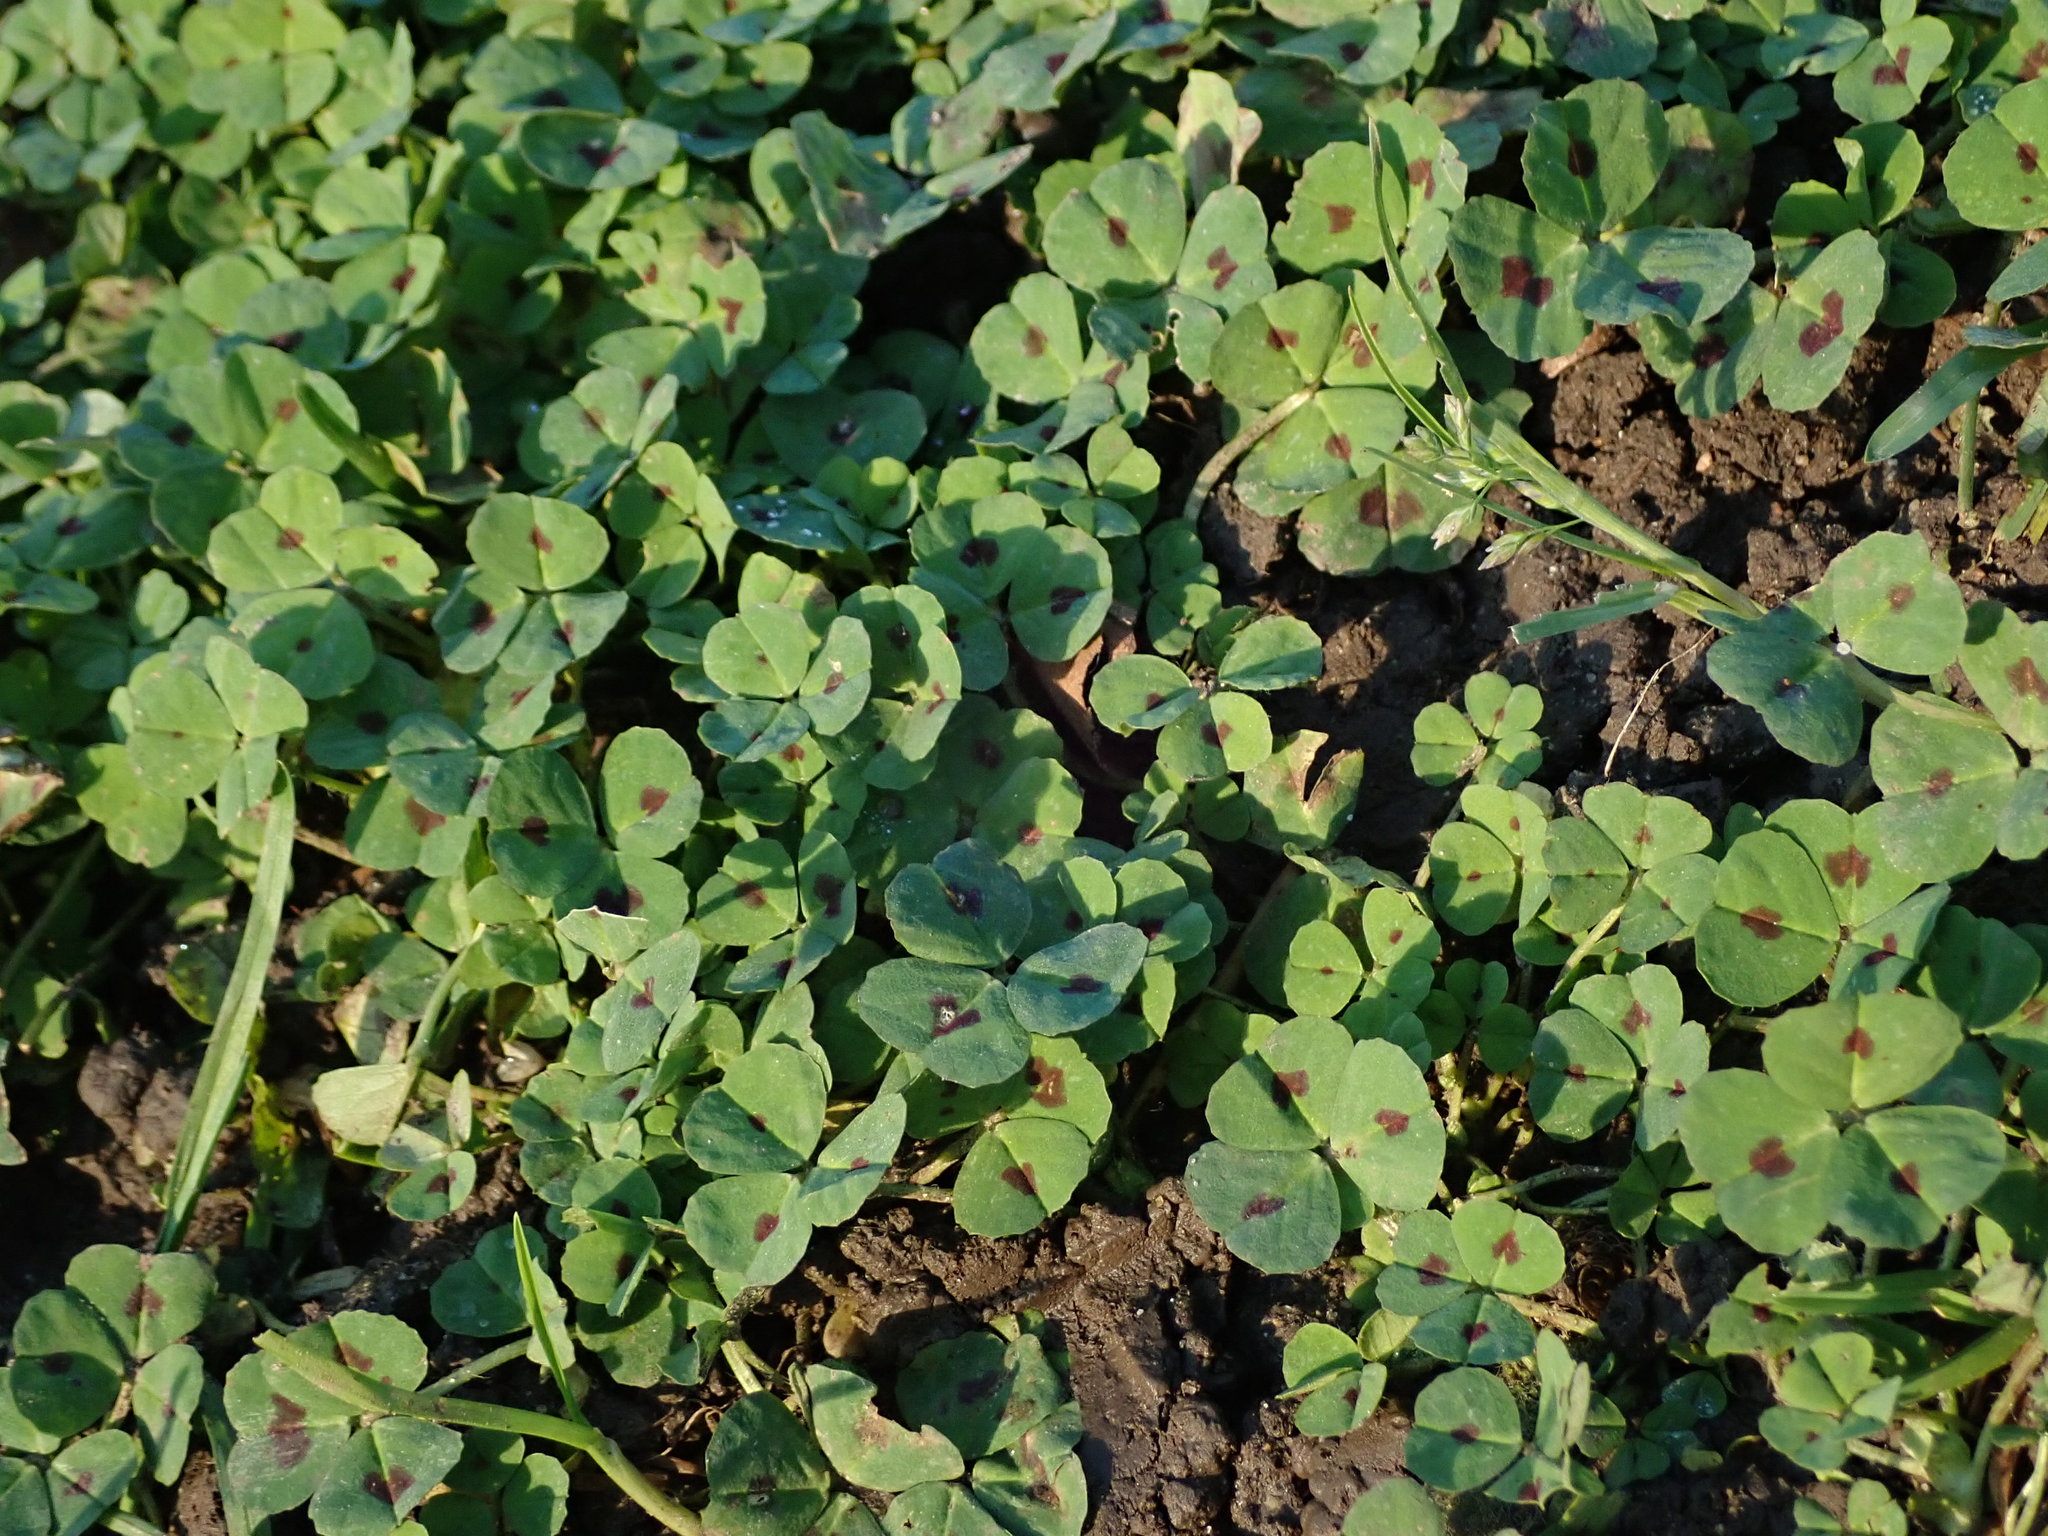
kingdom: Plantae
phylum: Tracheophyta
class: Magnoliopsida
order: Fabales
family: Fabaceae
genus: Medicago
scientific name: Medicago arabica
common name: Spotted medick
